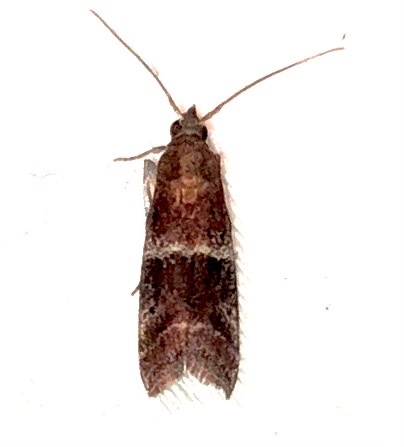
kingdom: Animalia
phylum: Arthropoda
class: Insecta
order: Lepidoptera
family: Pyralidae
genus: Moodna
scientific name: Moodna ostrinella
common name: Darker moodna moth
